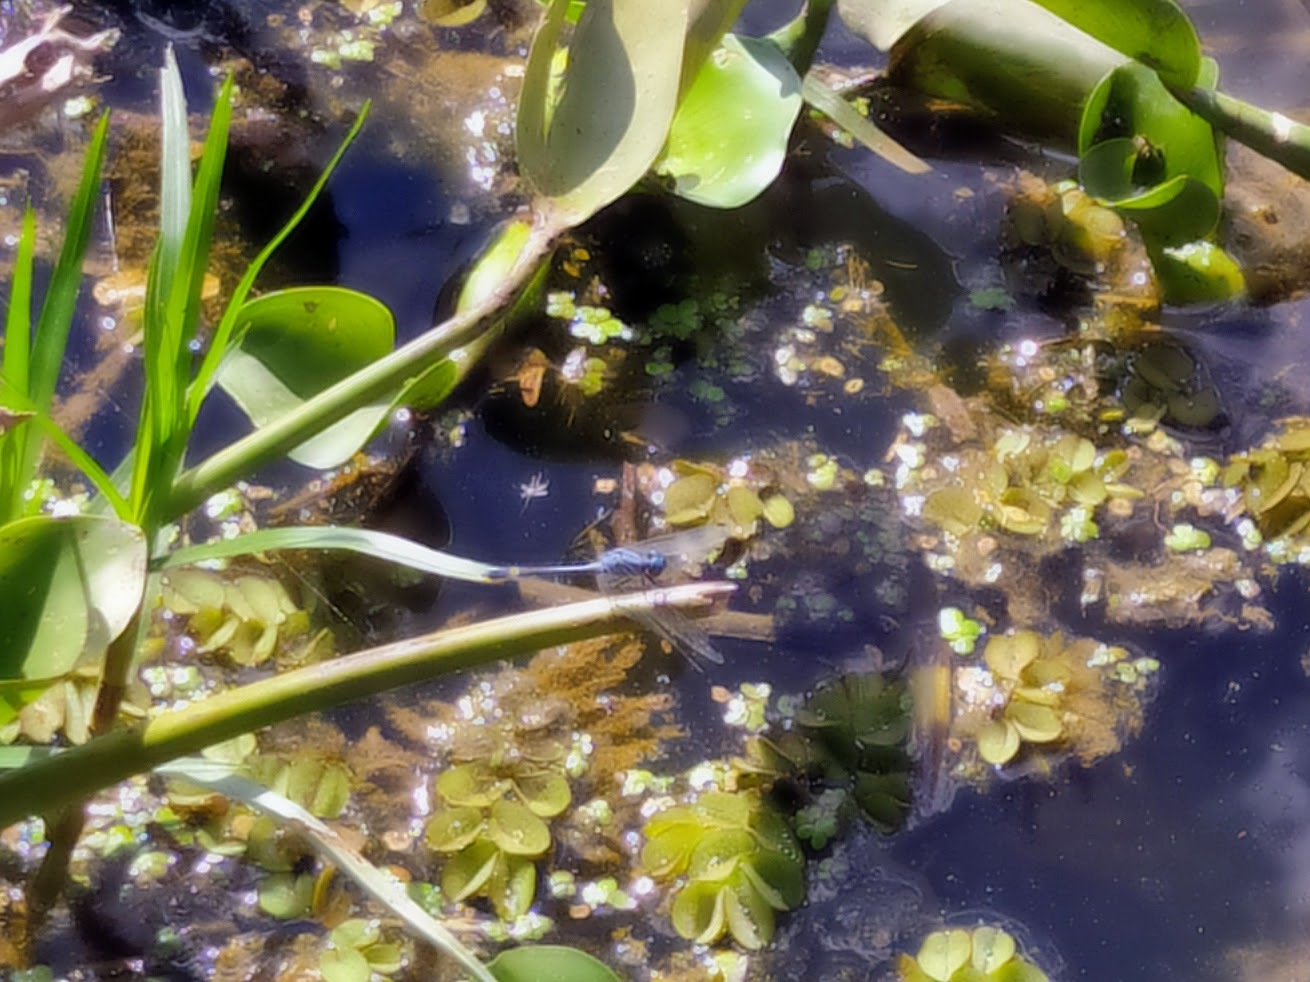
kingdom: Animalia
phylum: Arthropoda
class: Insecta
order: Odonata
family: Libellulidae
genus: Micrathyria
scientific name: Micrathyria aequalis
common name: Spot-tailed dasher
